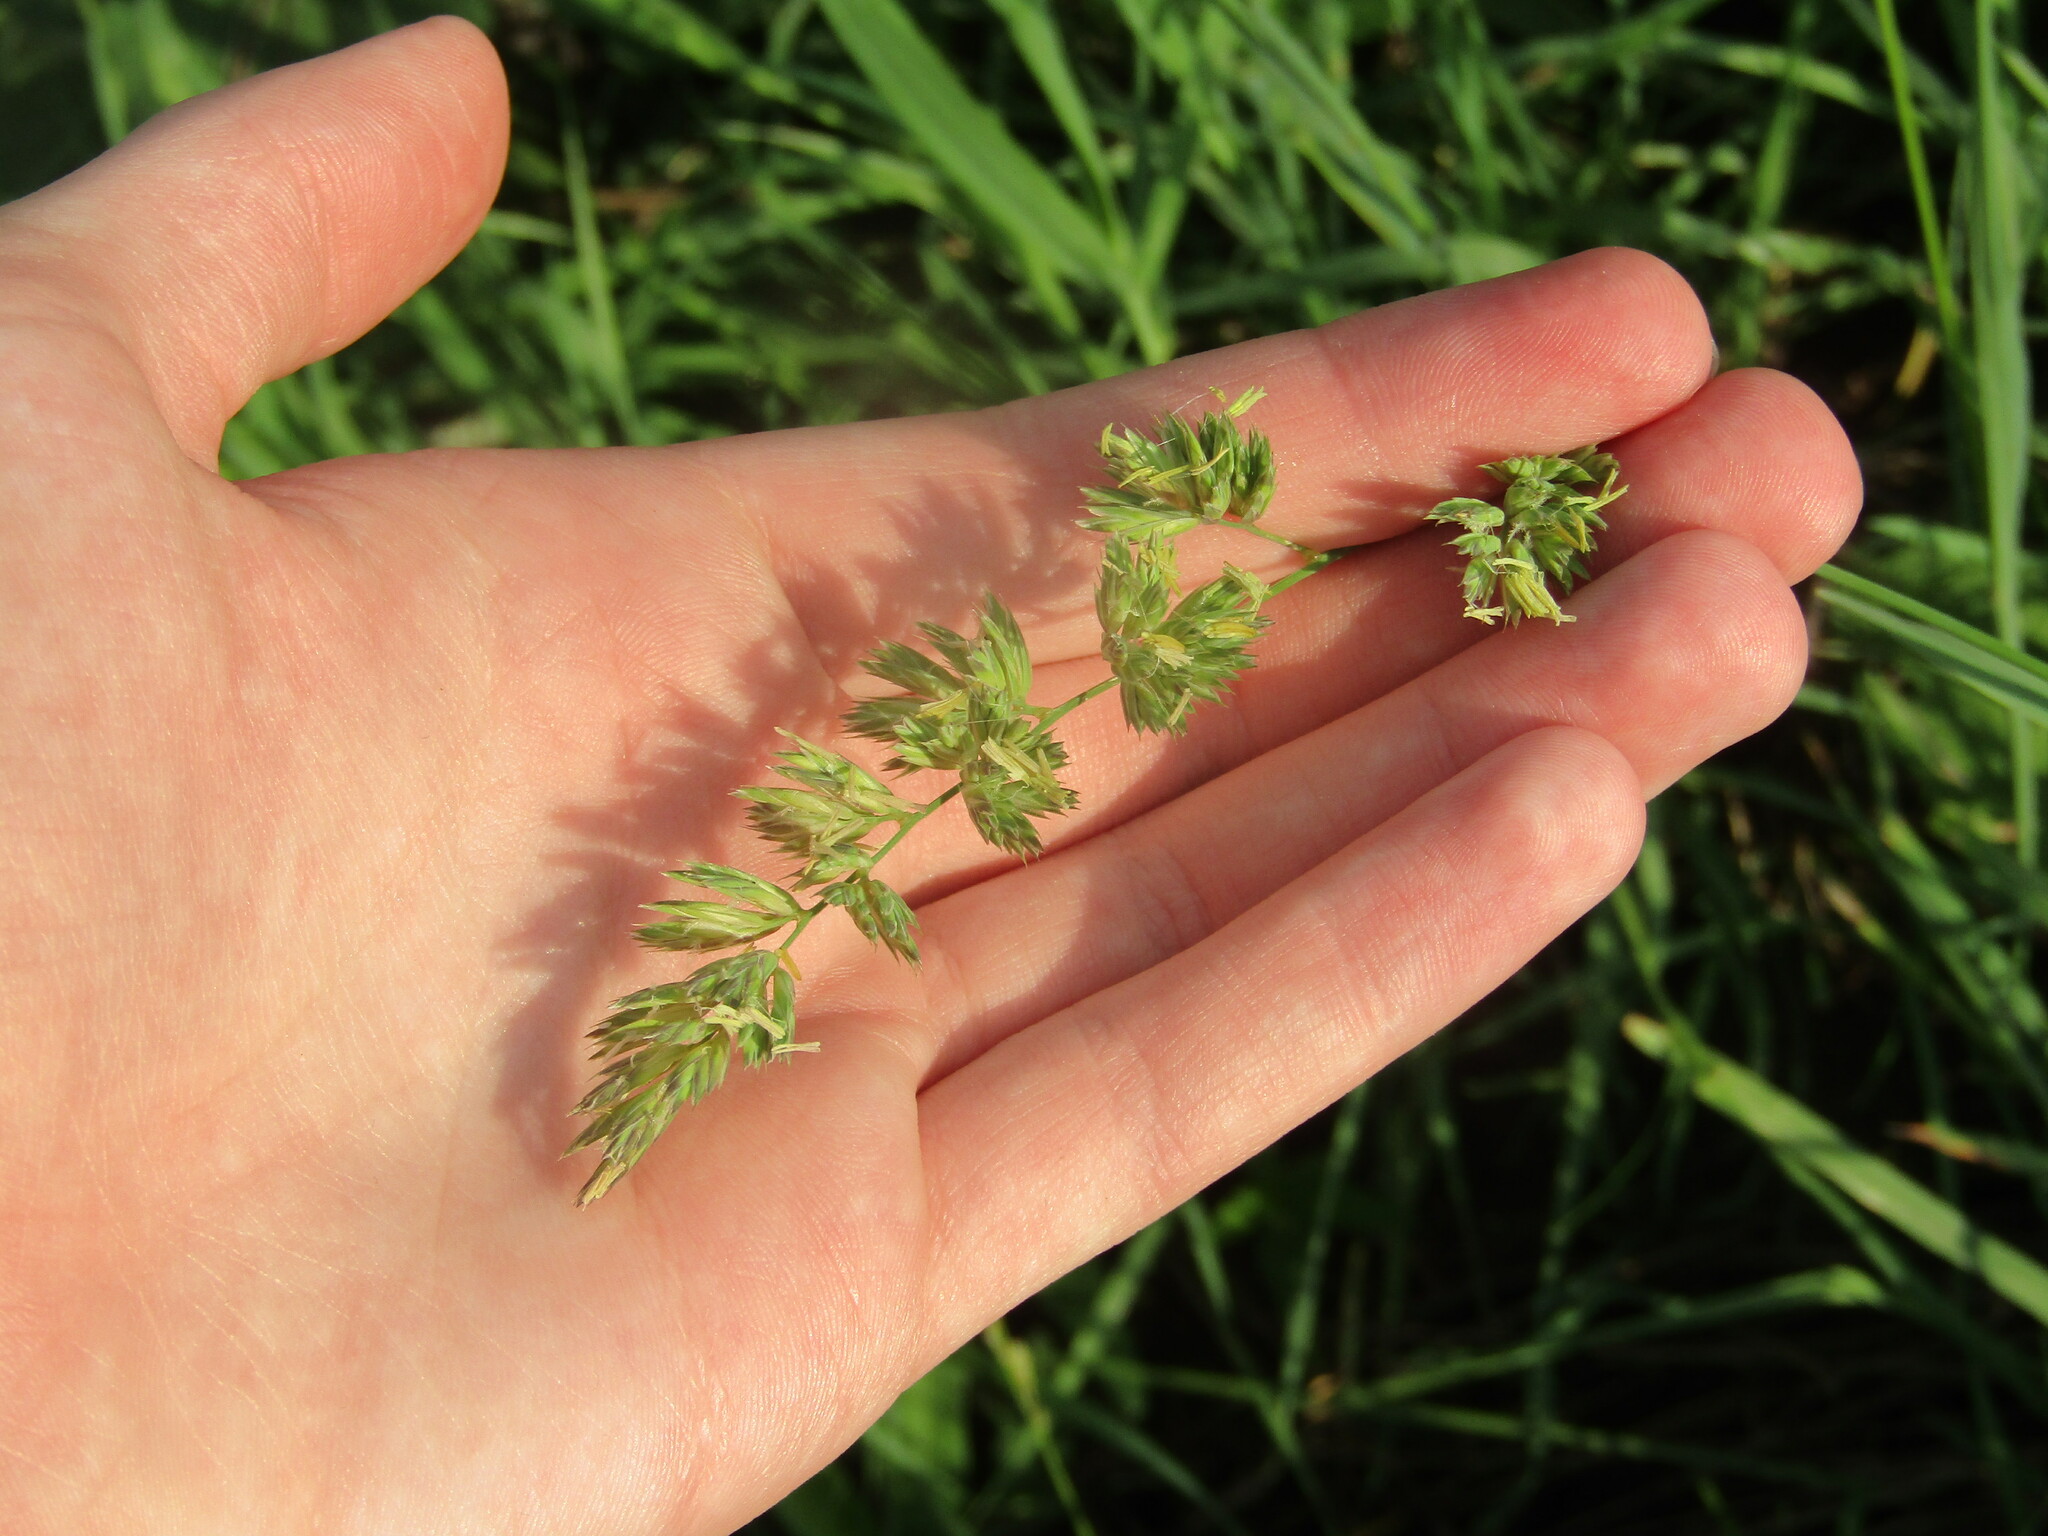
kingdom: Plantae
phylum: Tracheophyta
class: Liliopsida
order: Poales
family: Poaceae
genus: Dactylis
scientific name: Dactylis glomerata
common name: Orchardgrass
